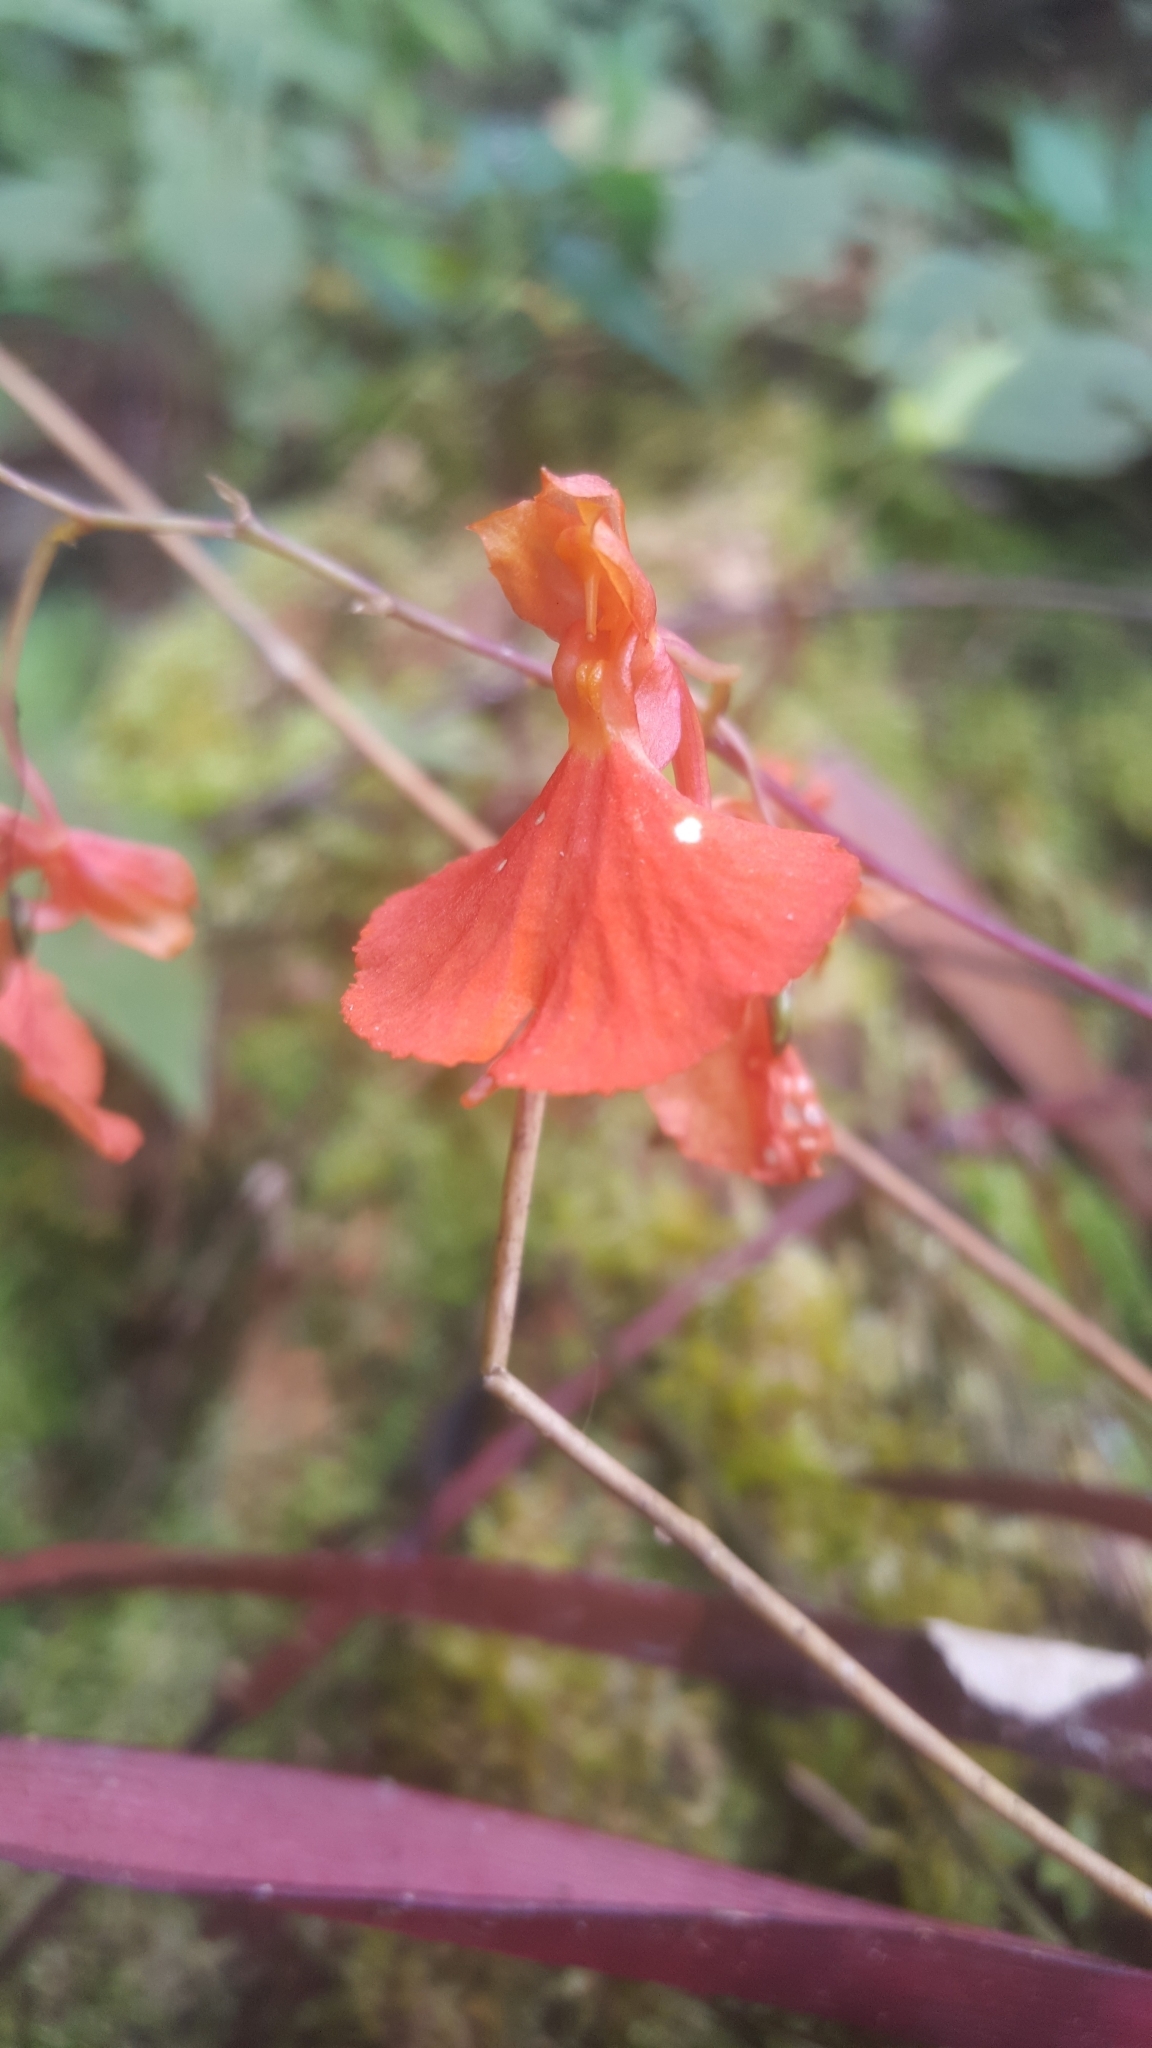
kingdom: Plantae
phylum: Tracheophyta
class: Liliopsida
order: Asparagales
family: Orchidaceae
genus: Comparettia
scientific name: Comparettia coccinea
